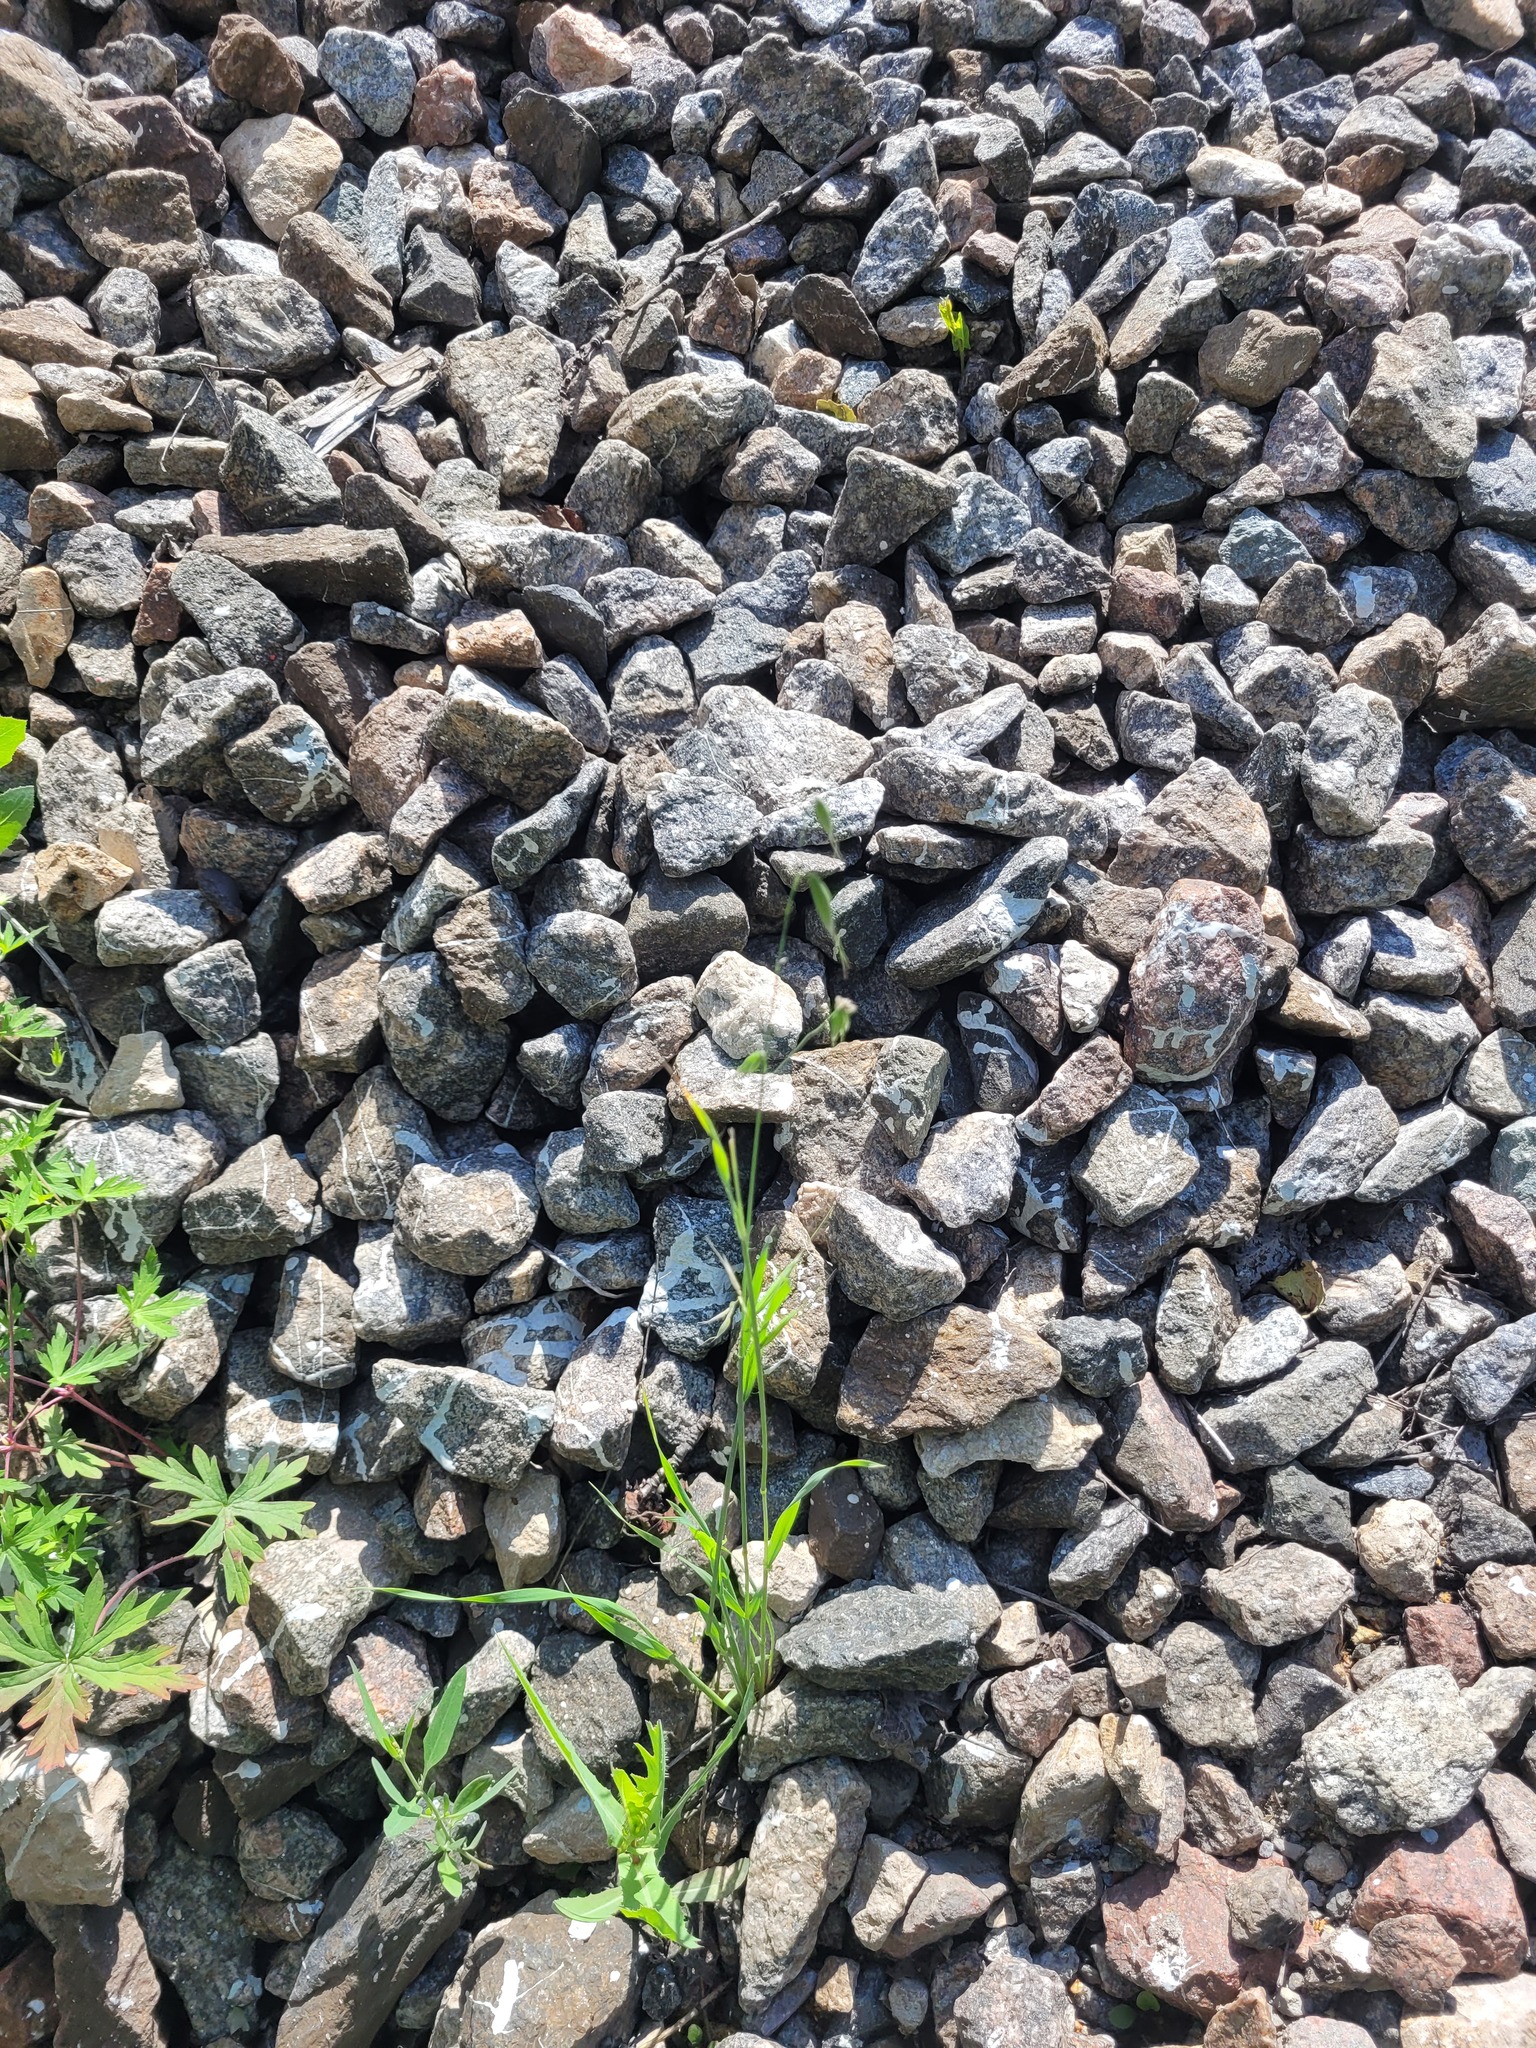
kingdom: Plantae
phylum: Tracheophyta
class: Liliopsida
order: Poales
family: Poaceae
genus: Avena
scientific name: Avena fatua
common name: Wild oat
